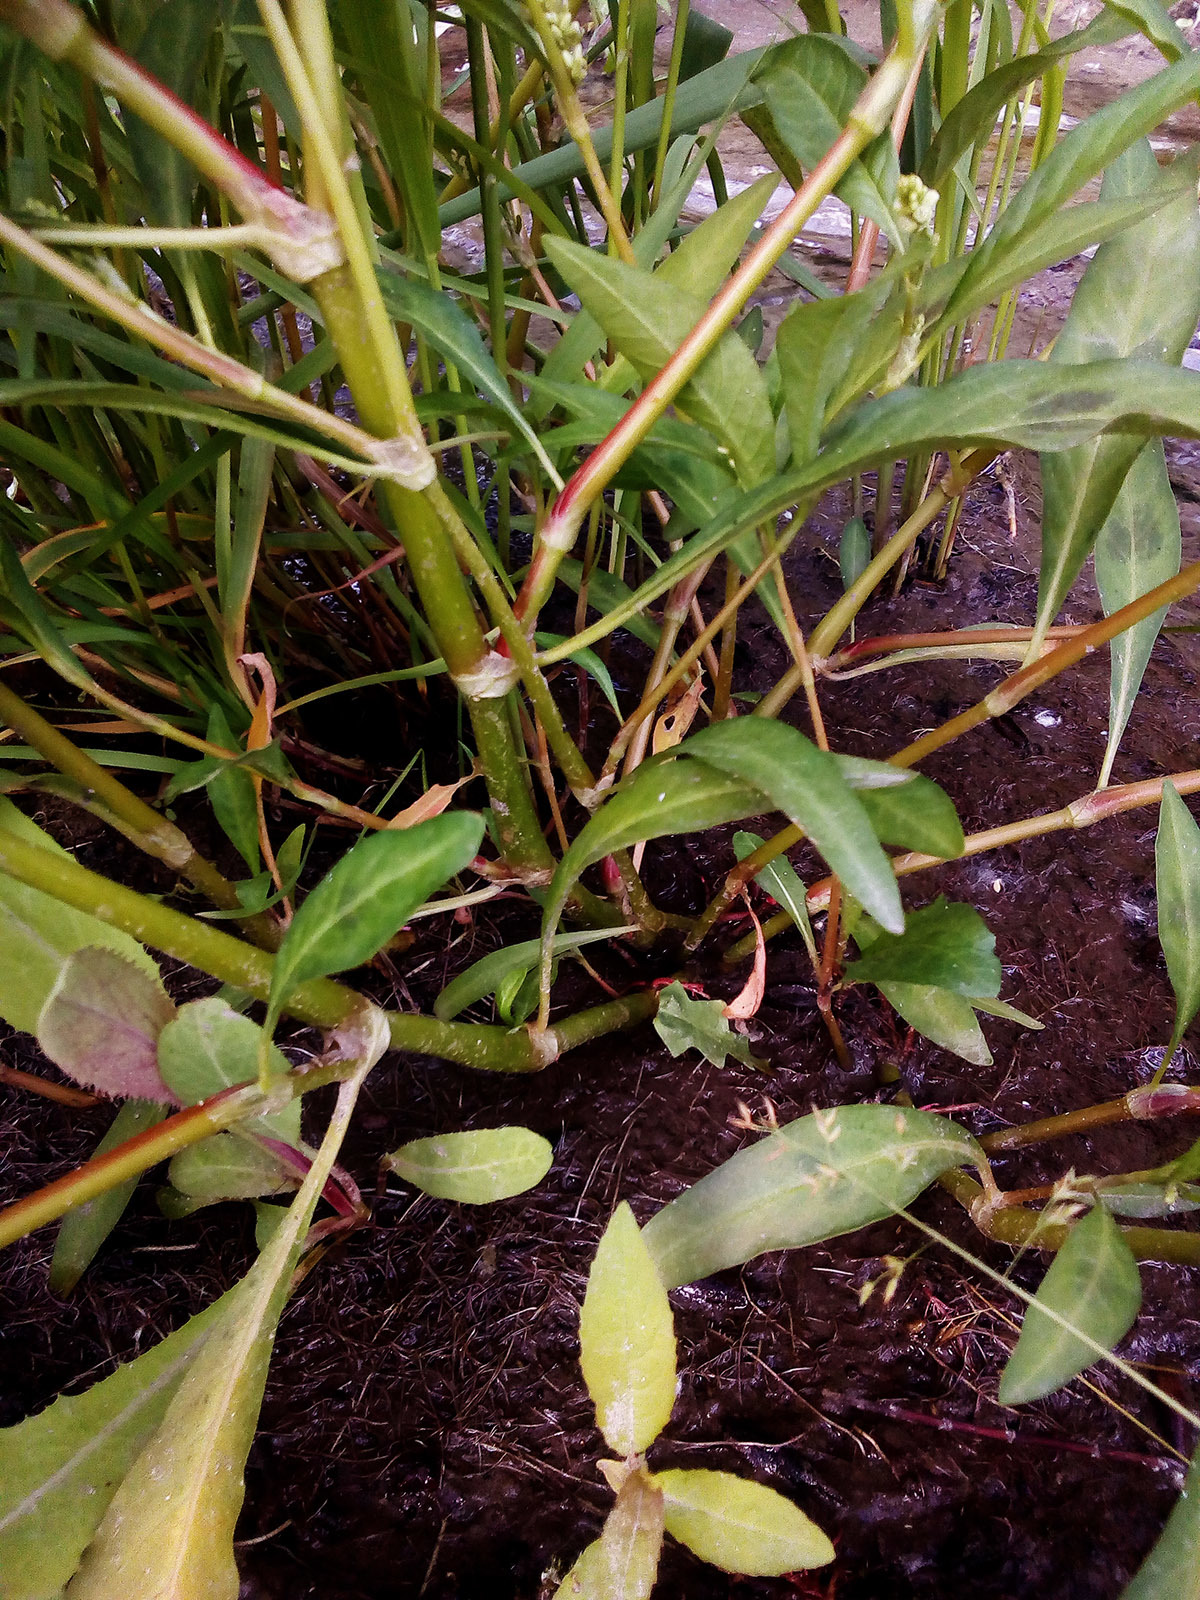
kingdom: Plantae
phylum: Tracheophyta
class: Magnoliopsida
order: Caryophyllales
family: Polygonaceae
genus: Persicaria
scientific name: Persicaria lapathifolia
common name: Curlytop knotweed
